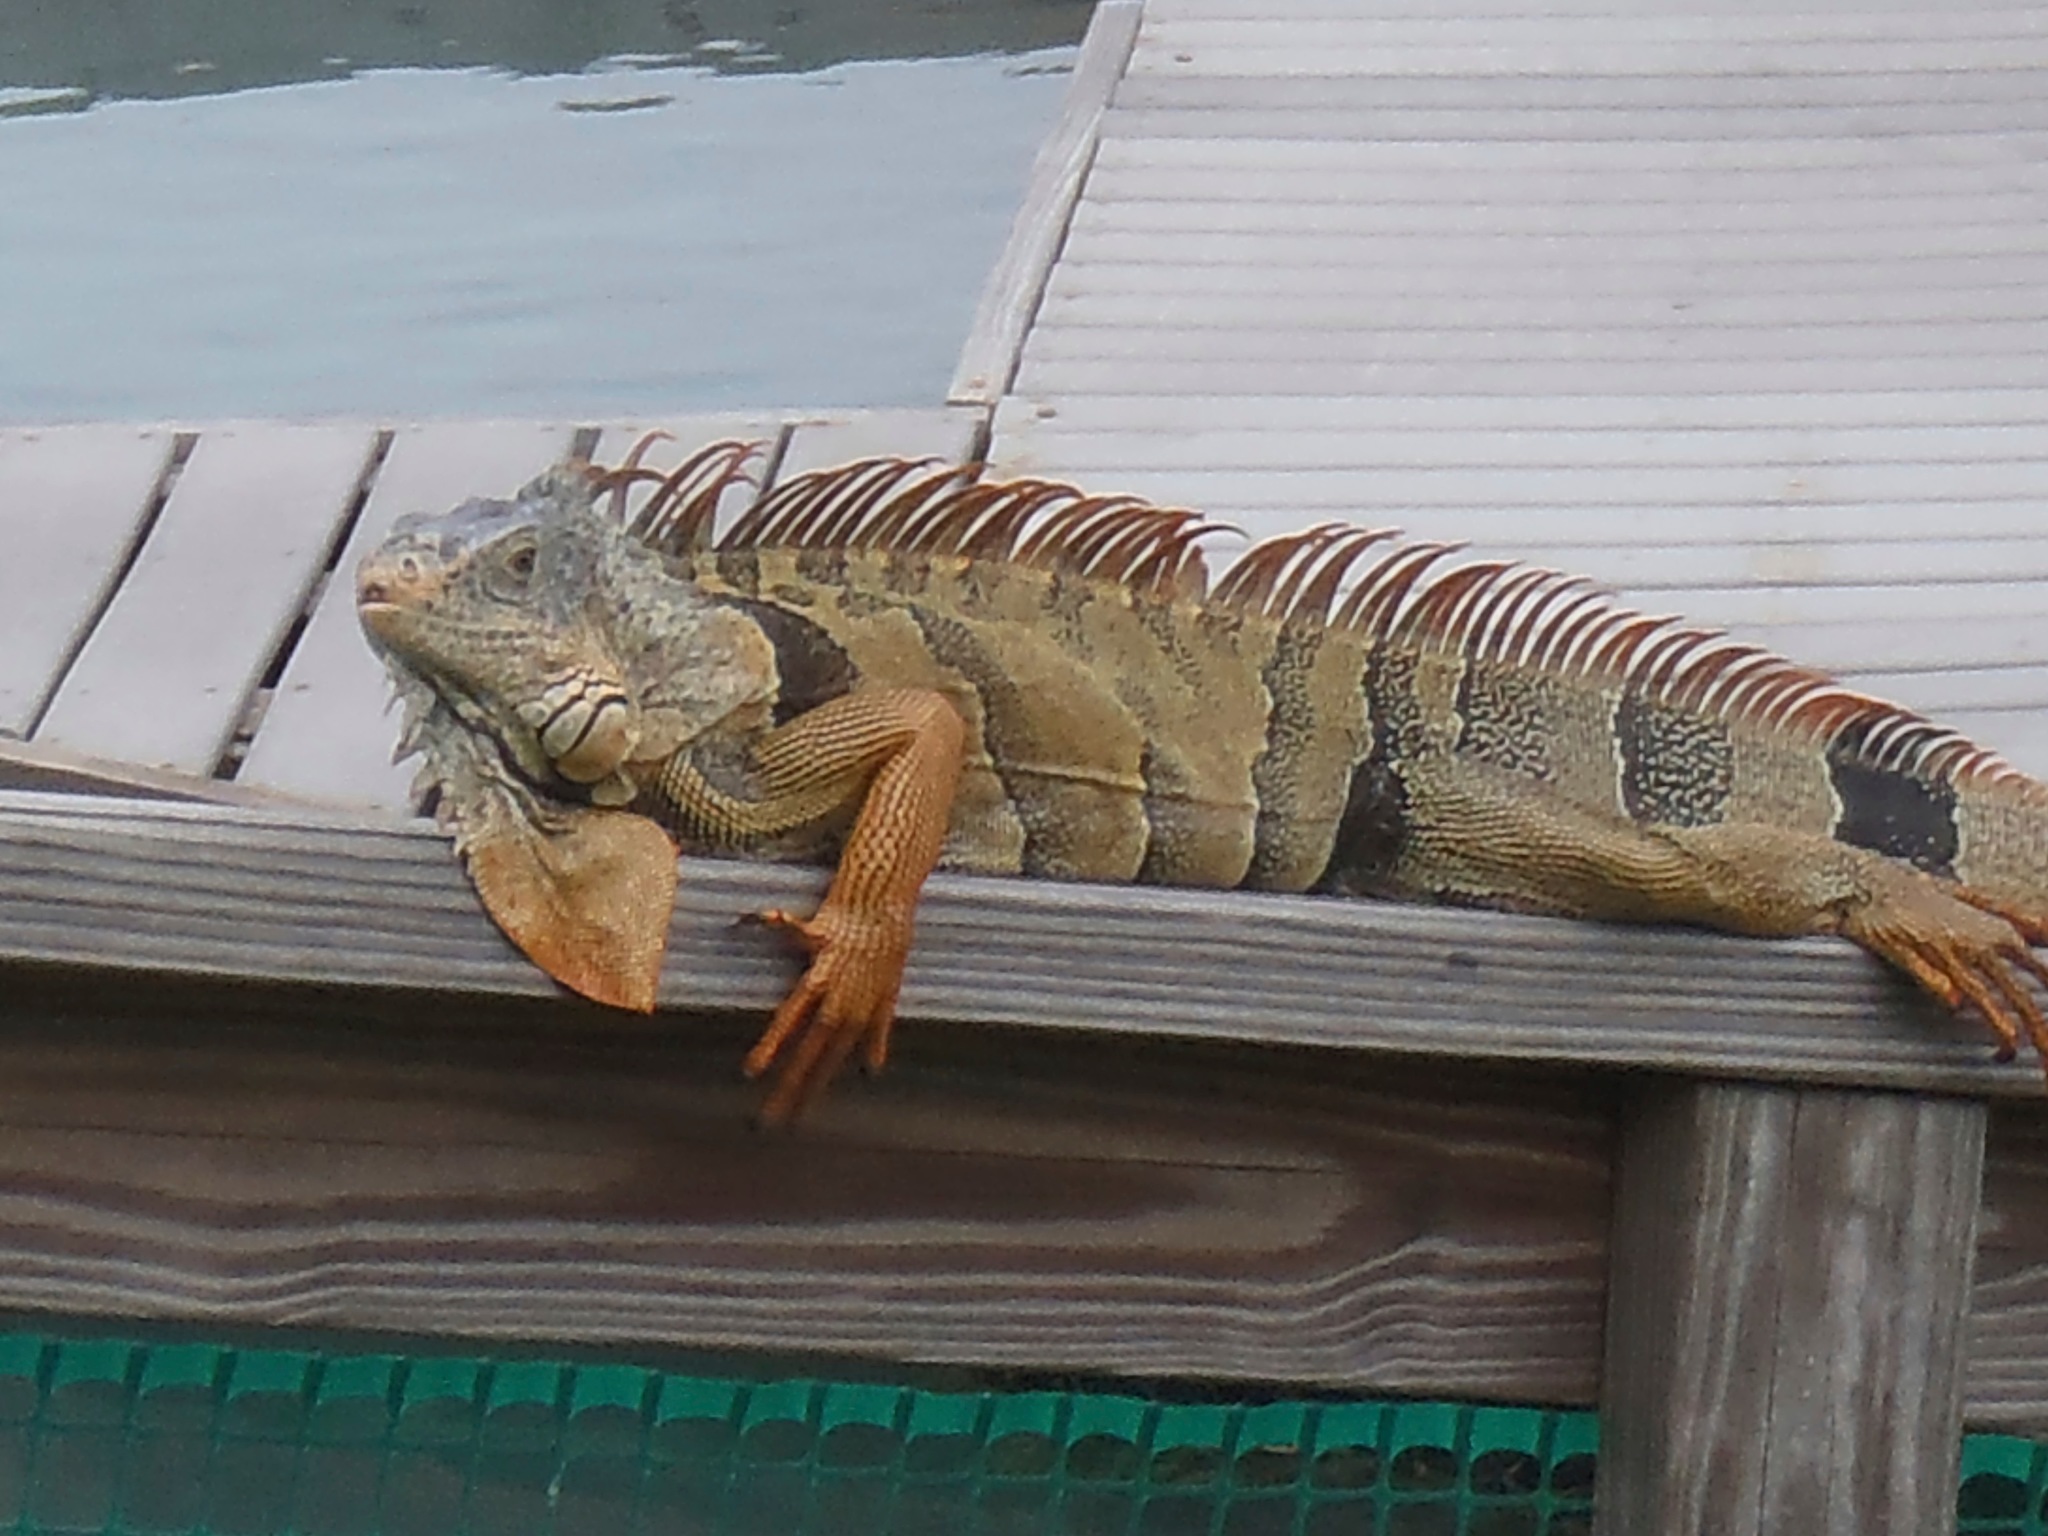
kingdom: Animalia
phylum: Chordata
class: Squamata
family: Iguanidae
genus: Iguana
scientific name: Iguana iguana
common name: Green iguana
